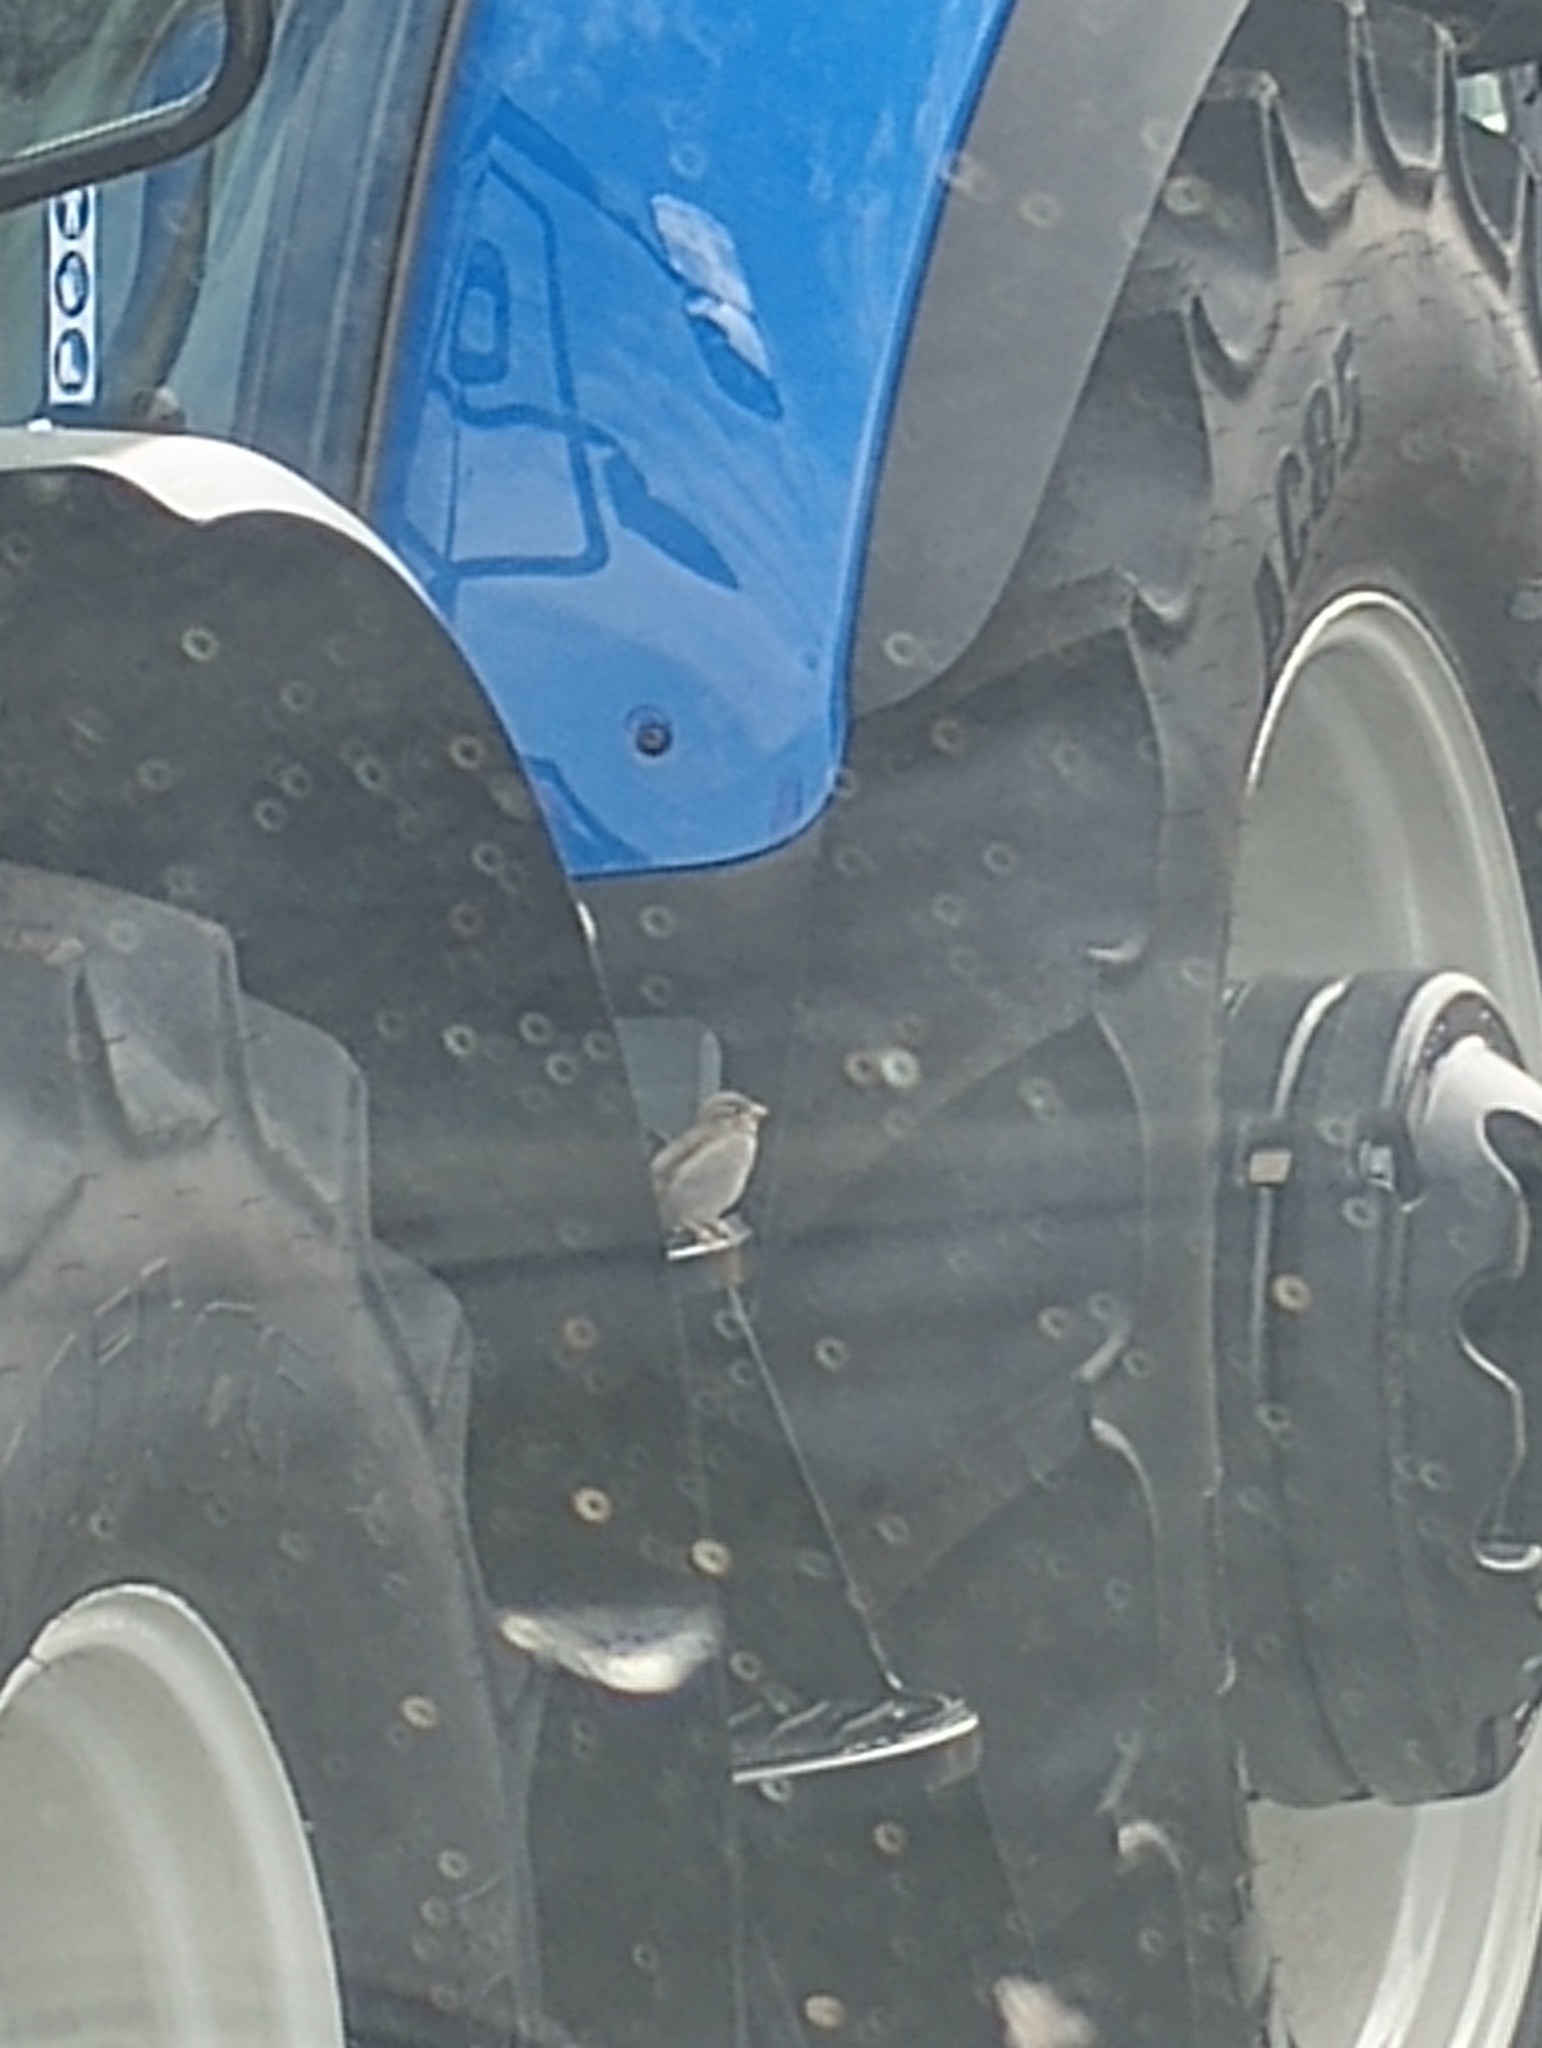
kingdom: Animalia
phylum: Chordata
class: Aves
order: Passeriformes
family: Passeridae
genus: Passer
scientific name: Passer domesticus
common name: House sparrow
